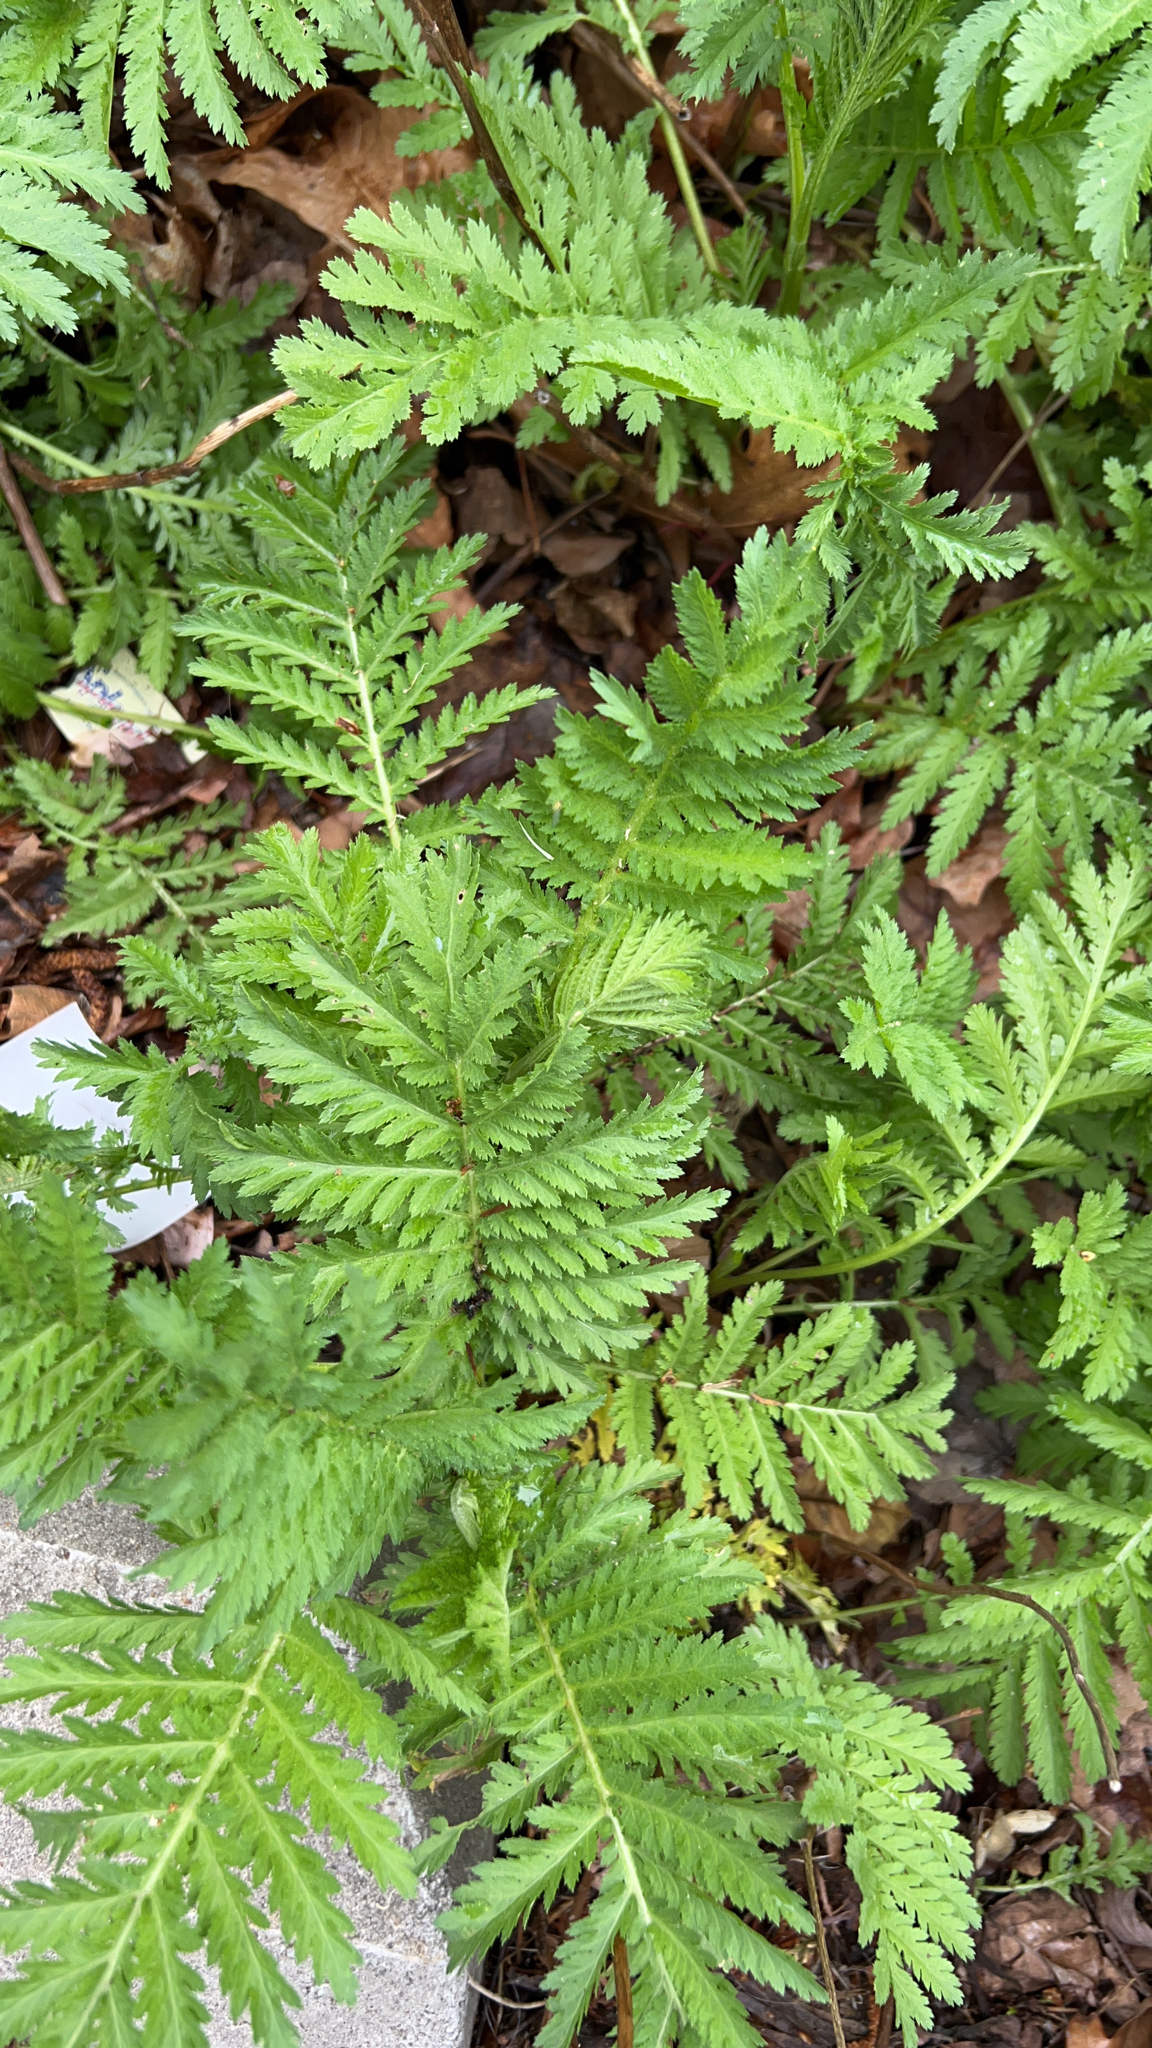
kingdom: Plantae
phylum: Tracheophyta
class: Magnoliopsida
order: Asterales
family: Asteraceae
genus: Tanacetum
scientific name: Tanacetum vulgare
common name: Common tansy
